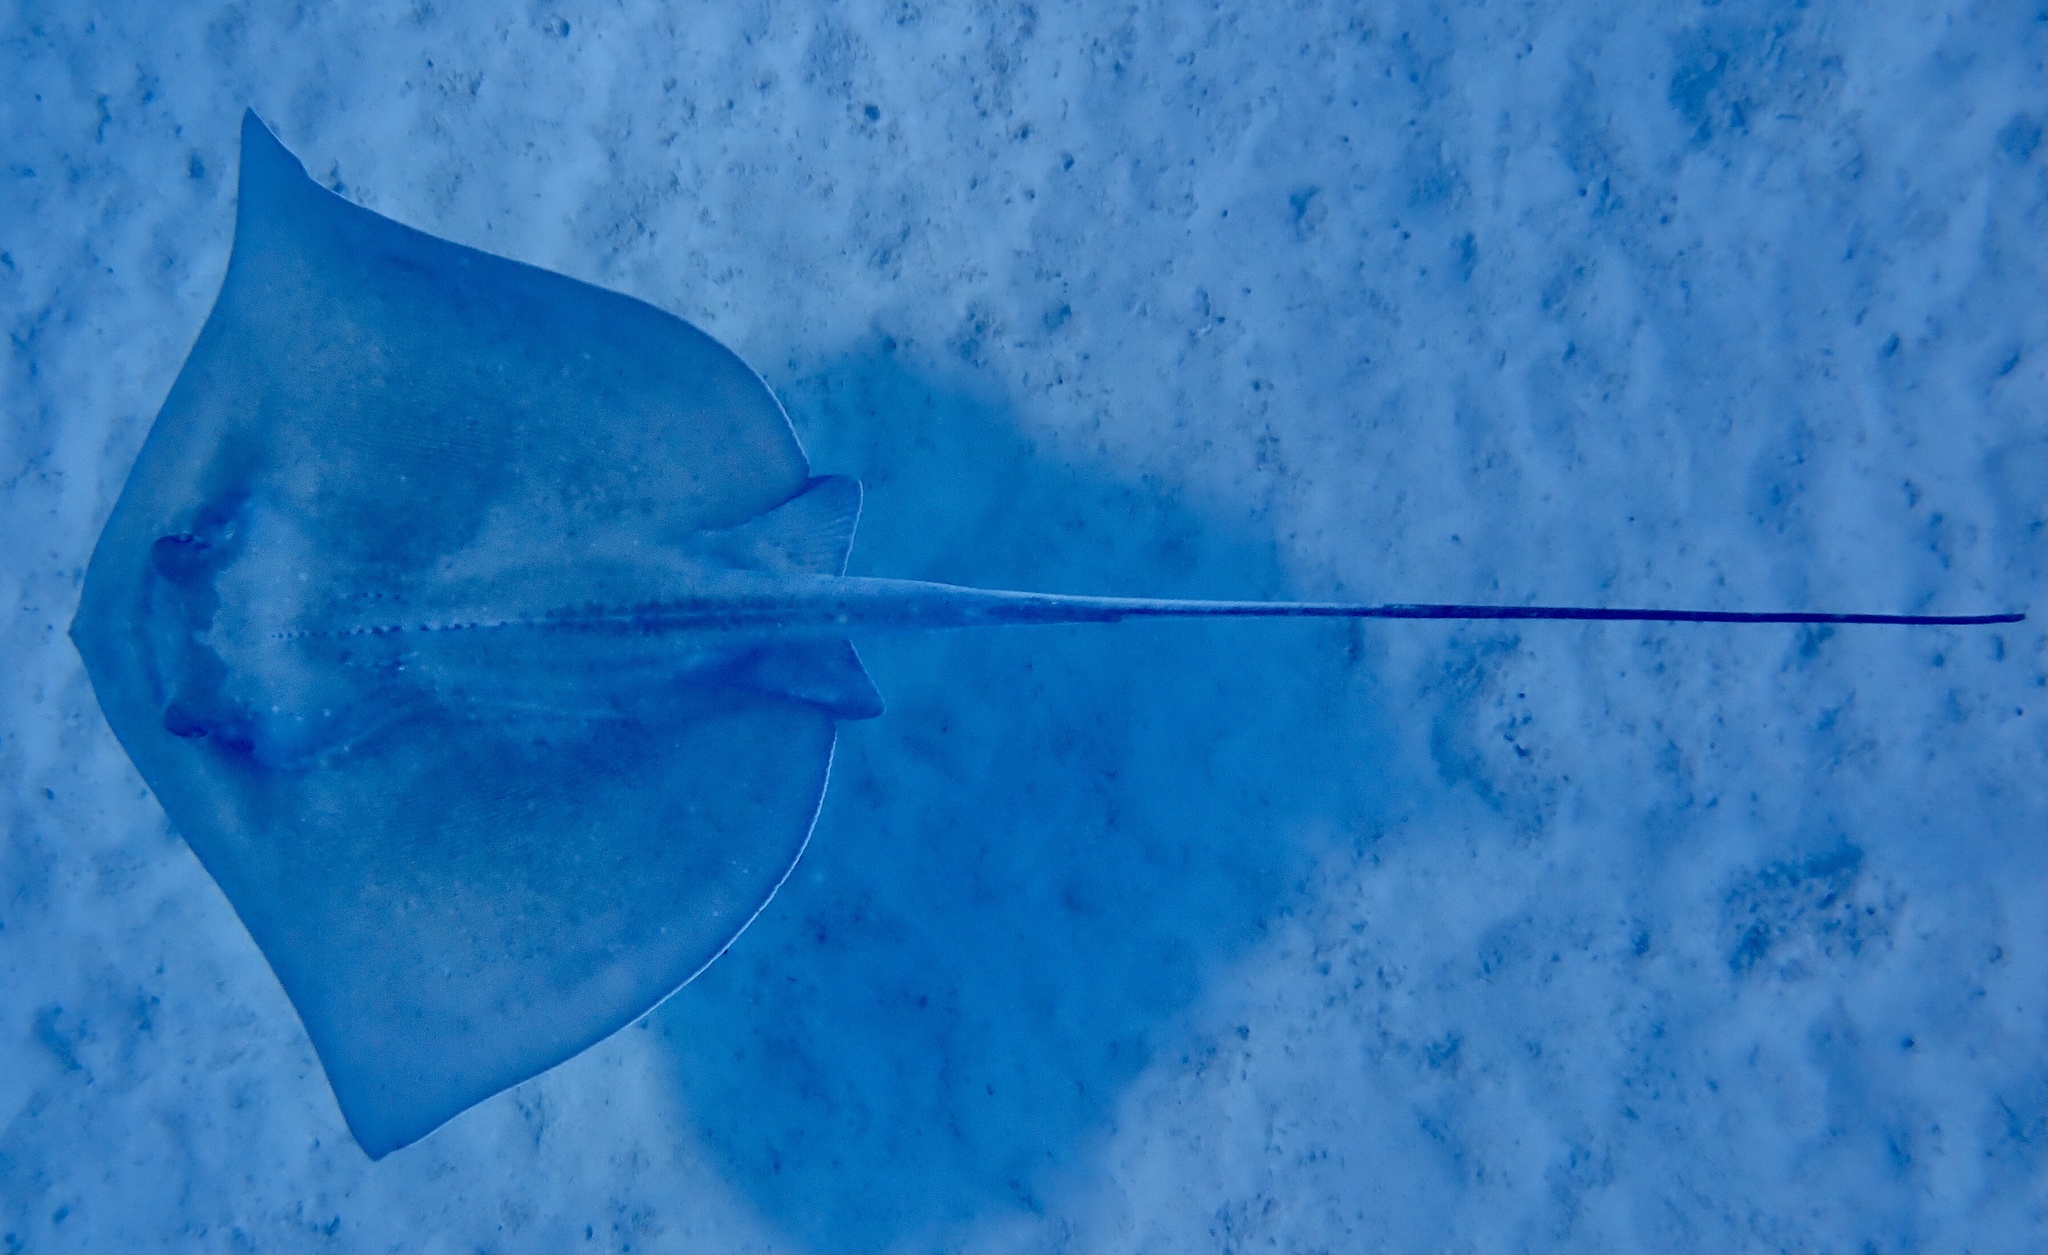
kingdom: Animalia
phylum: Chordata
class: Elasmobranchii
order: Myliobatiformes
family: Dasyatidae
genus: Hypanus
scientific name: Hypanus americanus
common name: Southern stingray
